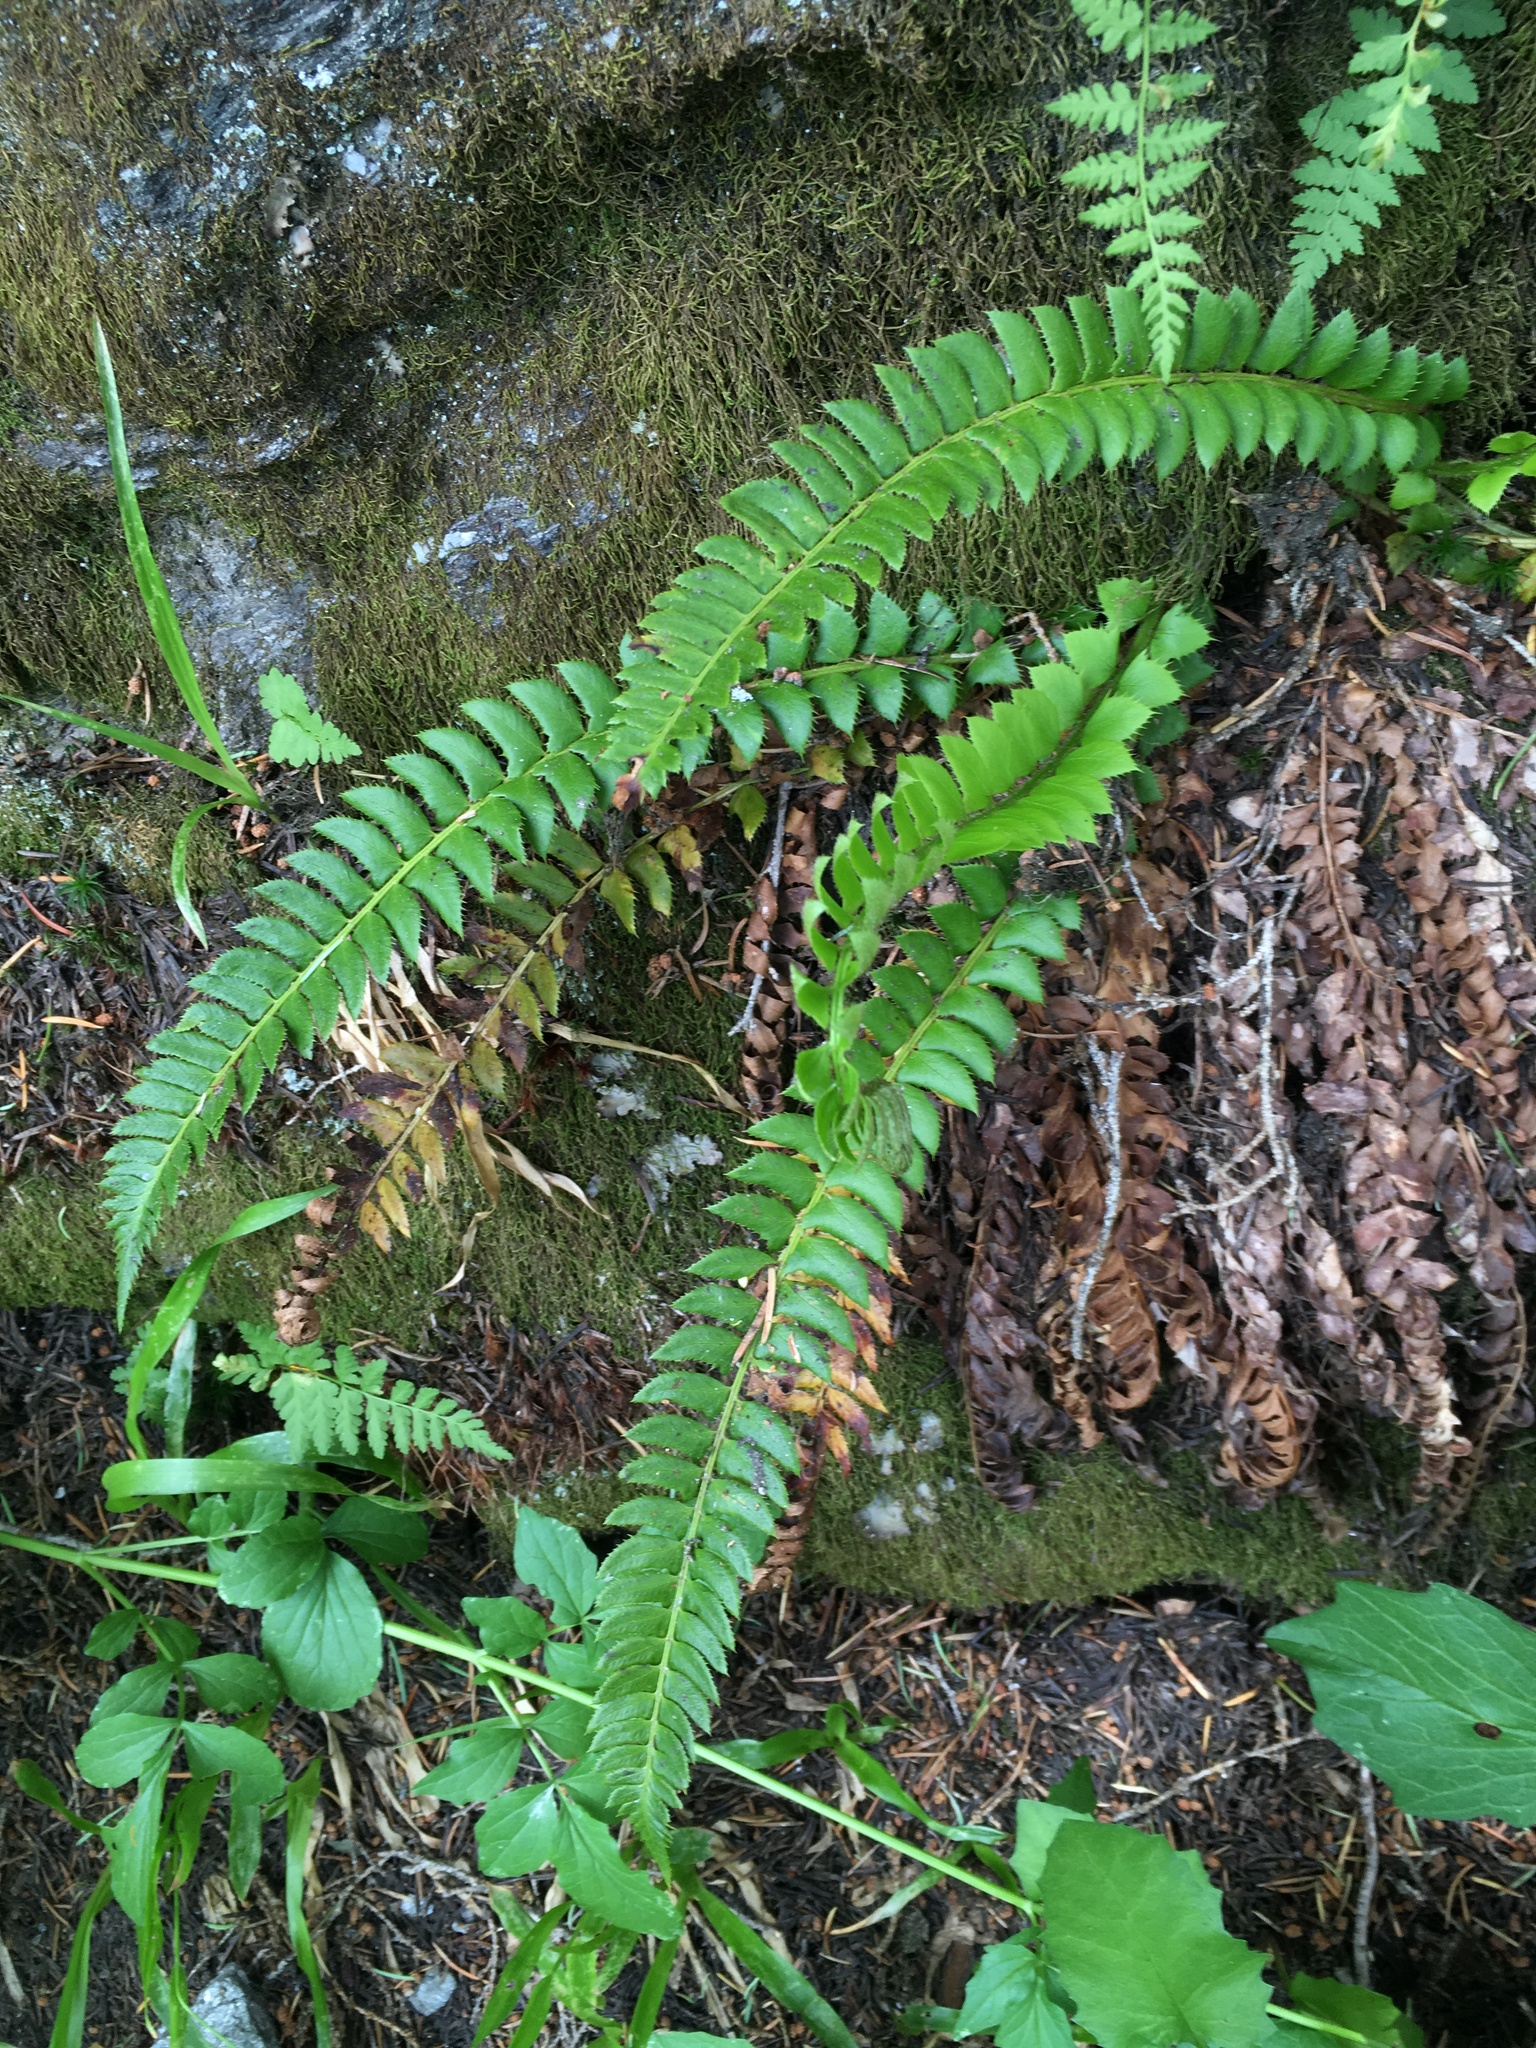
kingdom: Plantae
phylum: Tracheophyta
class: Polypodiopsida
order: Polypodiales
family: Dryopteridaceae
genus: Polystichum
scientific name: Polystichum lonchitis
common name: Holly fern
